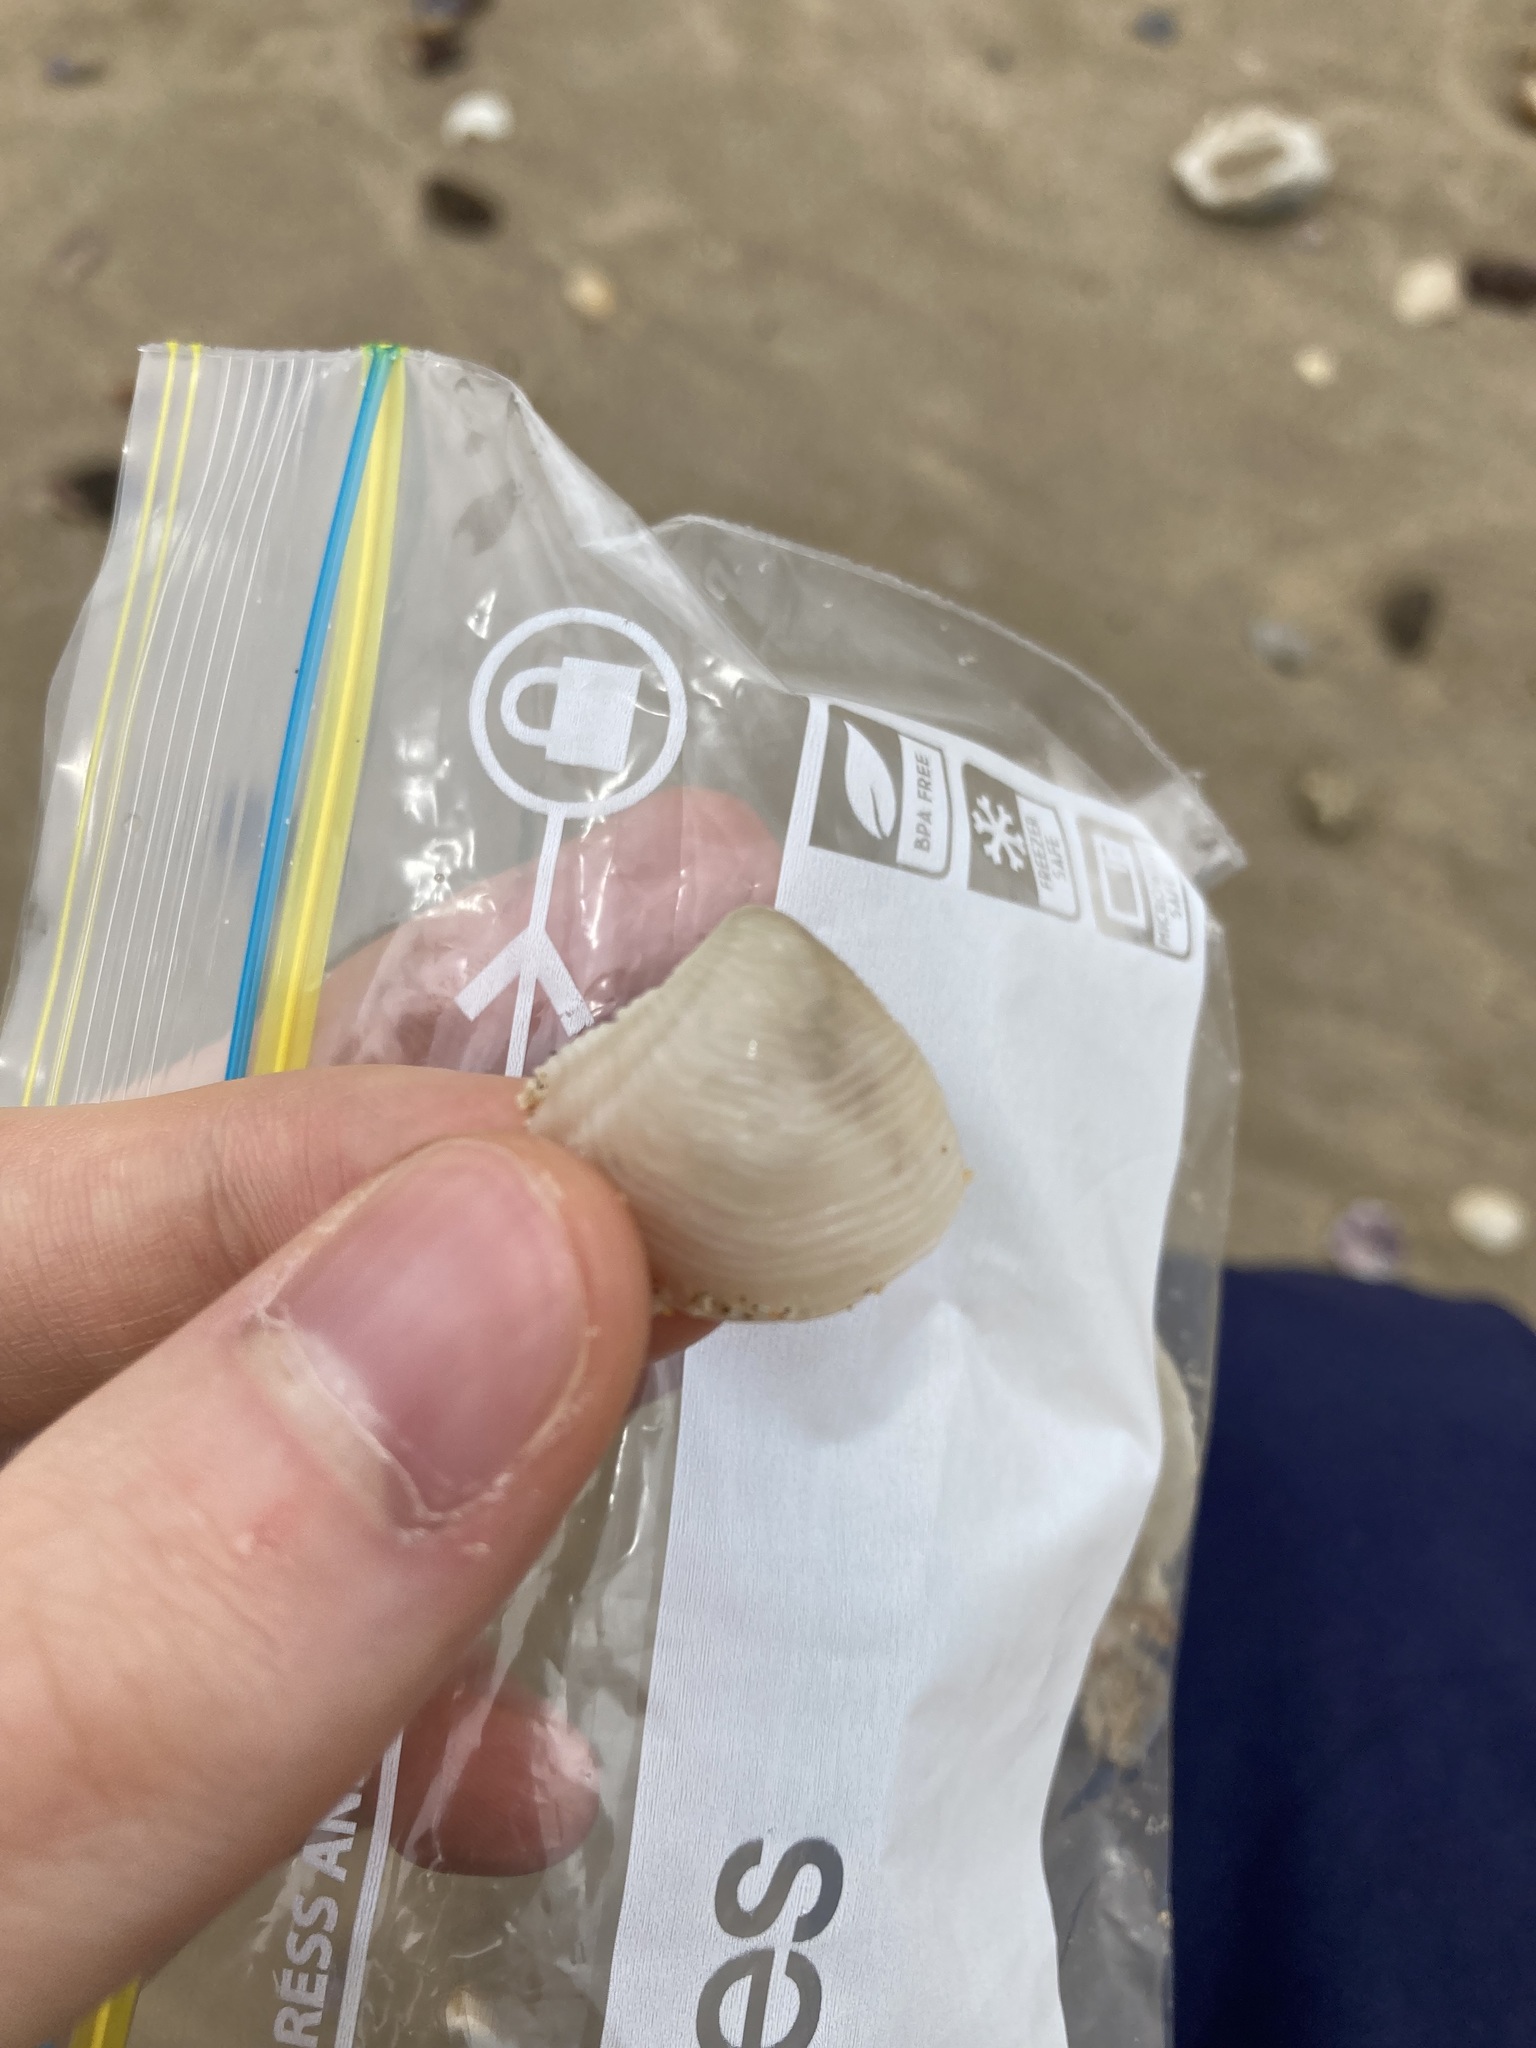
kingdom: Animalia
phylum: Mollusca
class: Bivalvia
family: Myochamidae
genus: Myadora
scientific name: Myadora brevis
